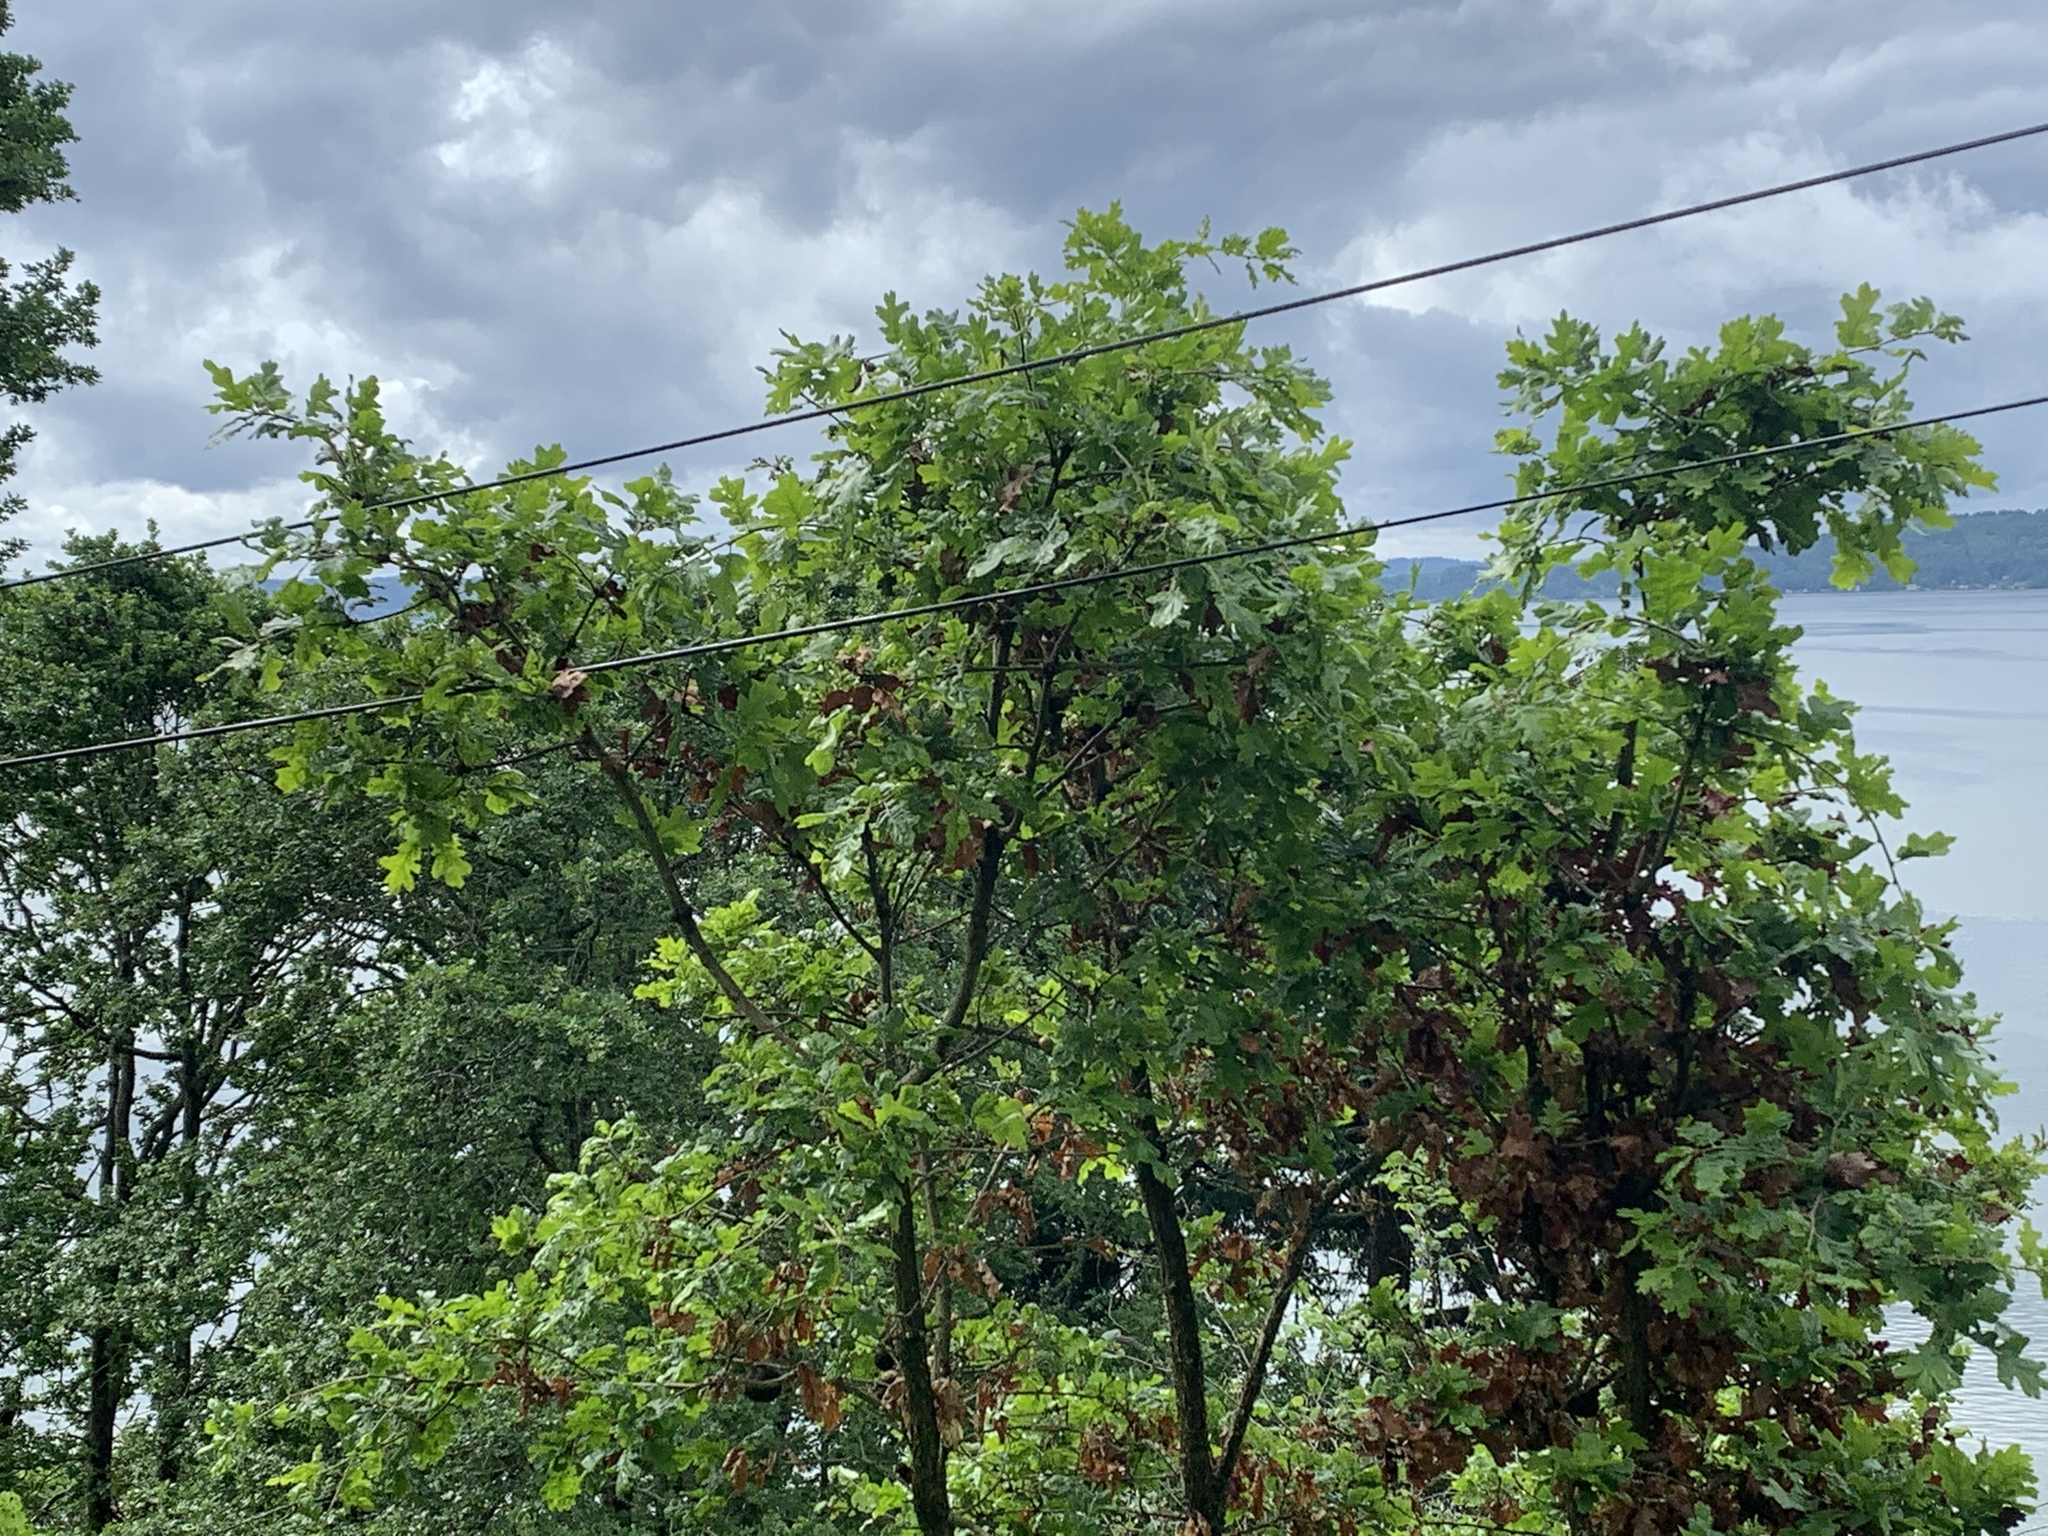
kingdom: Plantae
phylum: Tracheophyta
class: Magnoliopsida
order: Fagales
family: Fagaceae
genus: Quercus
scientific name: Quercus garryana
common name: Garry oak
